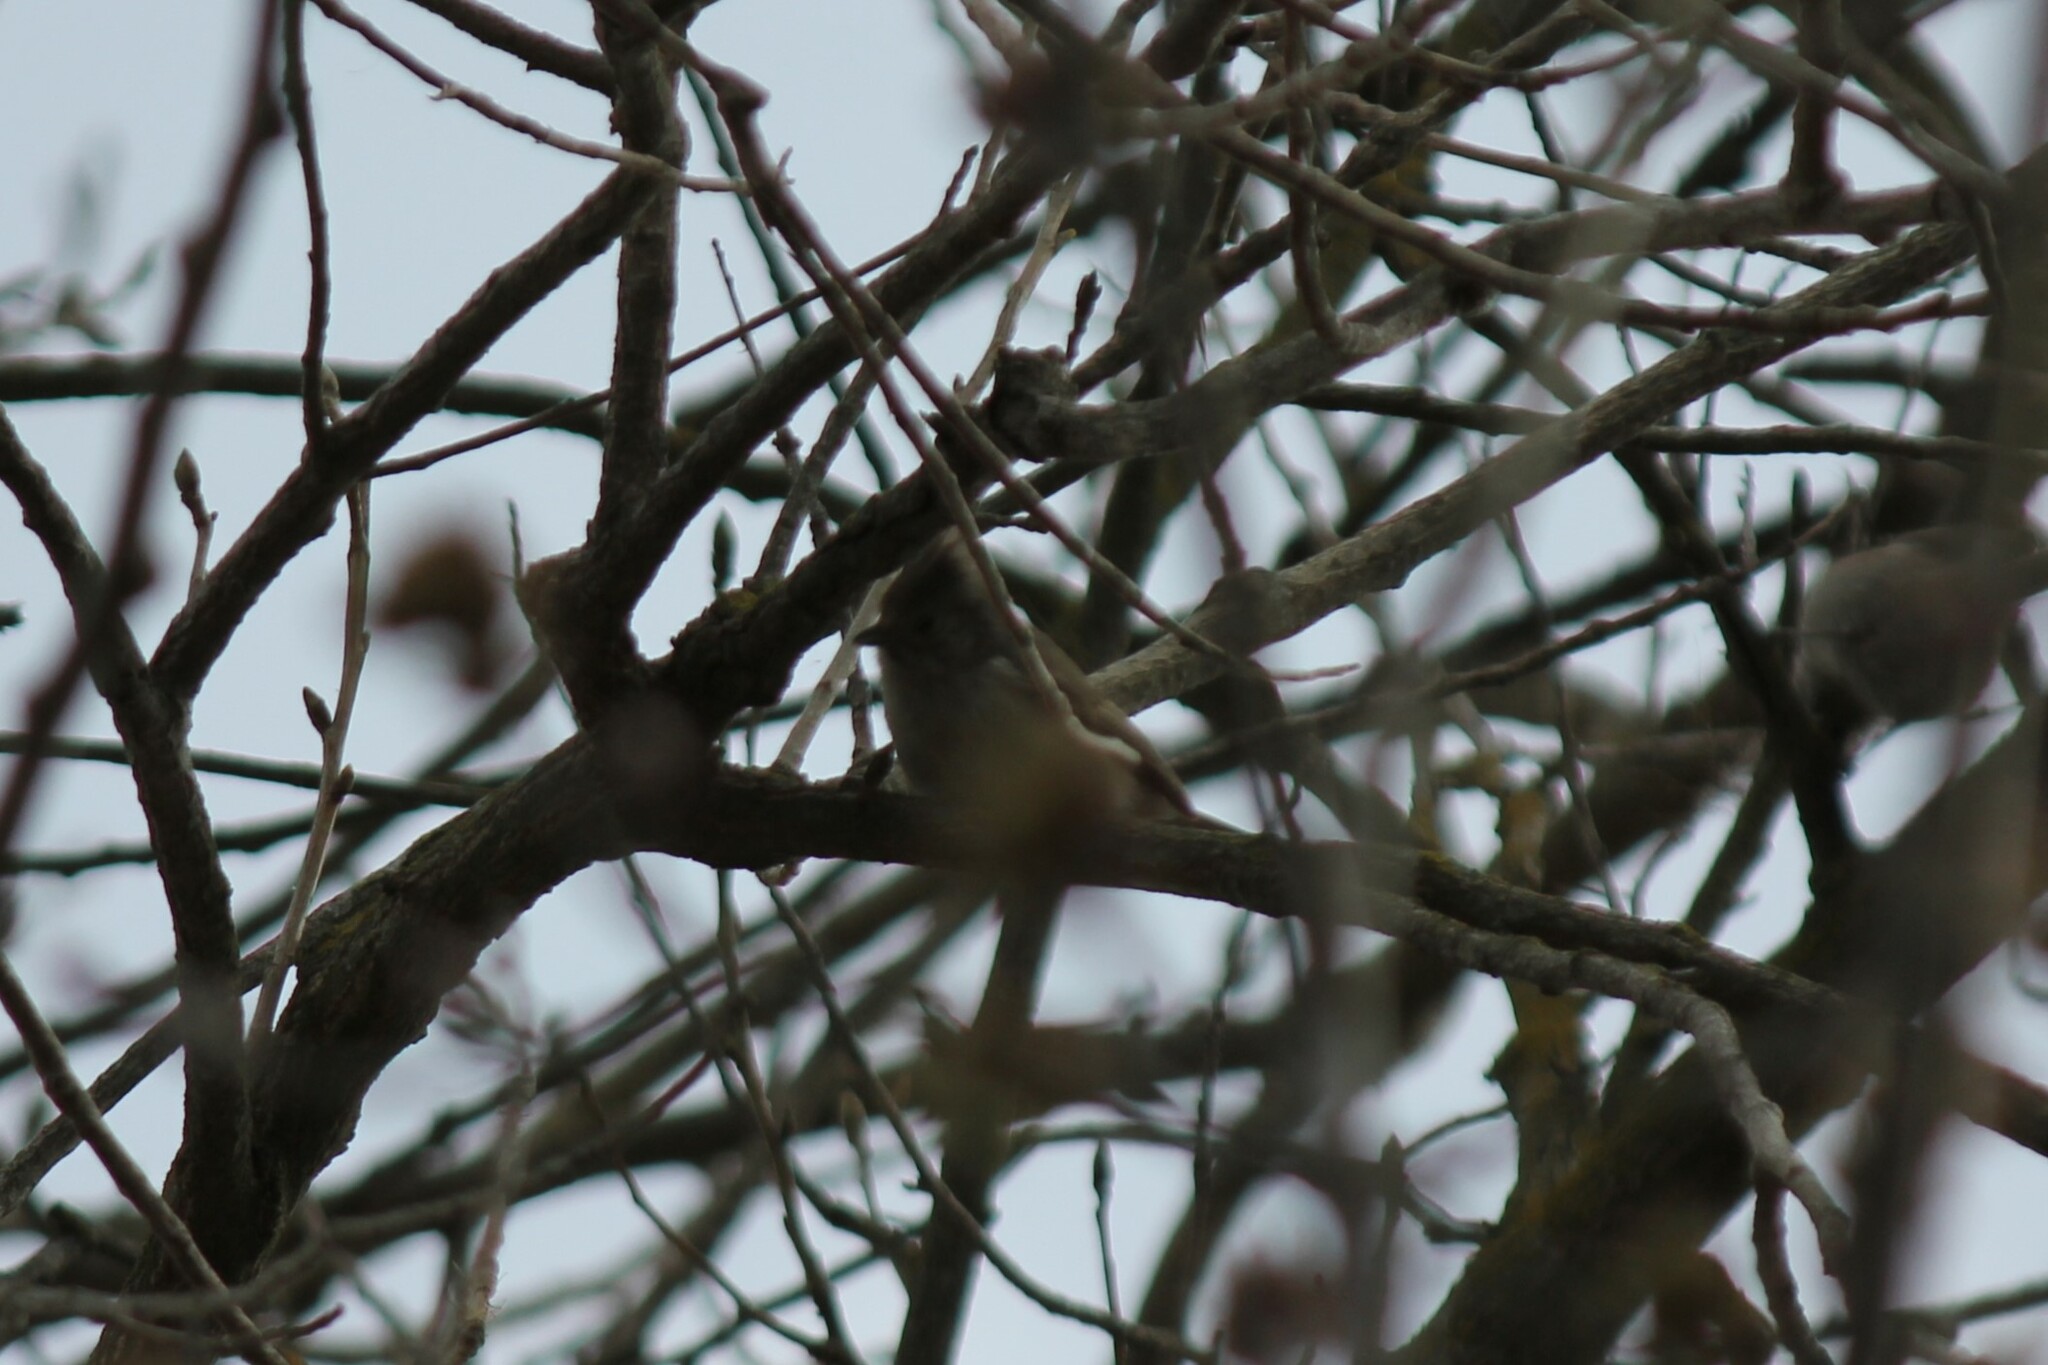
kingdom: Animalia
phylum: Chordata
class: Aves
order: Passeriformes
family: Paridae
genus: Baeolophus
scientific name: Baeolophus inornatus
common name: Oak titmouse
